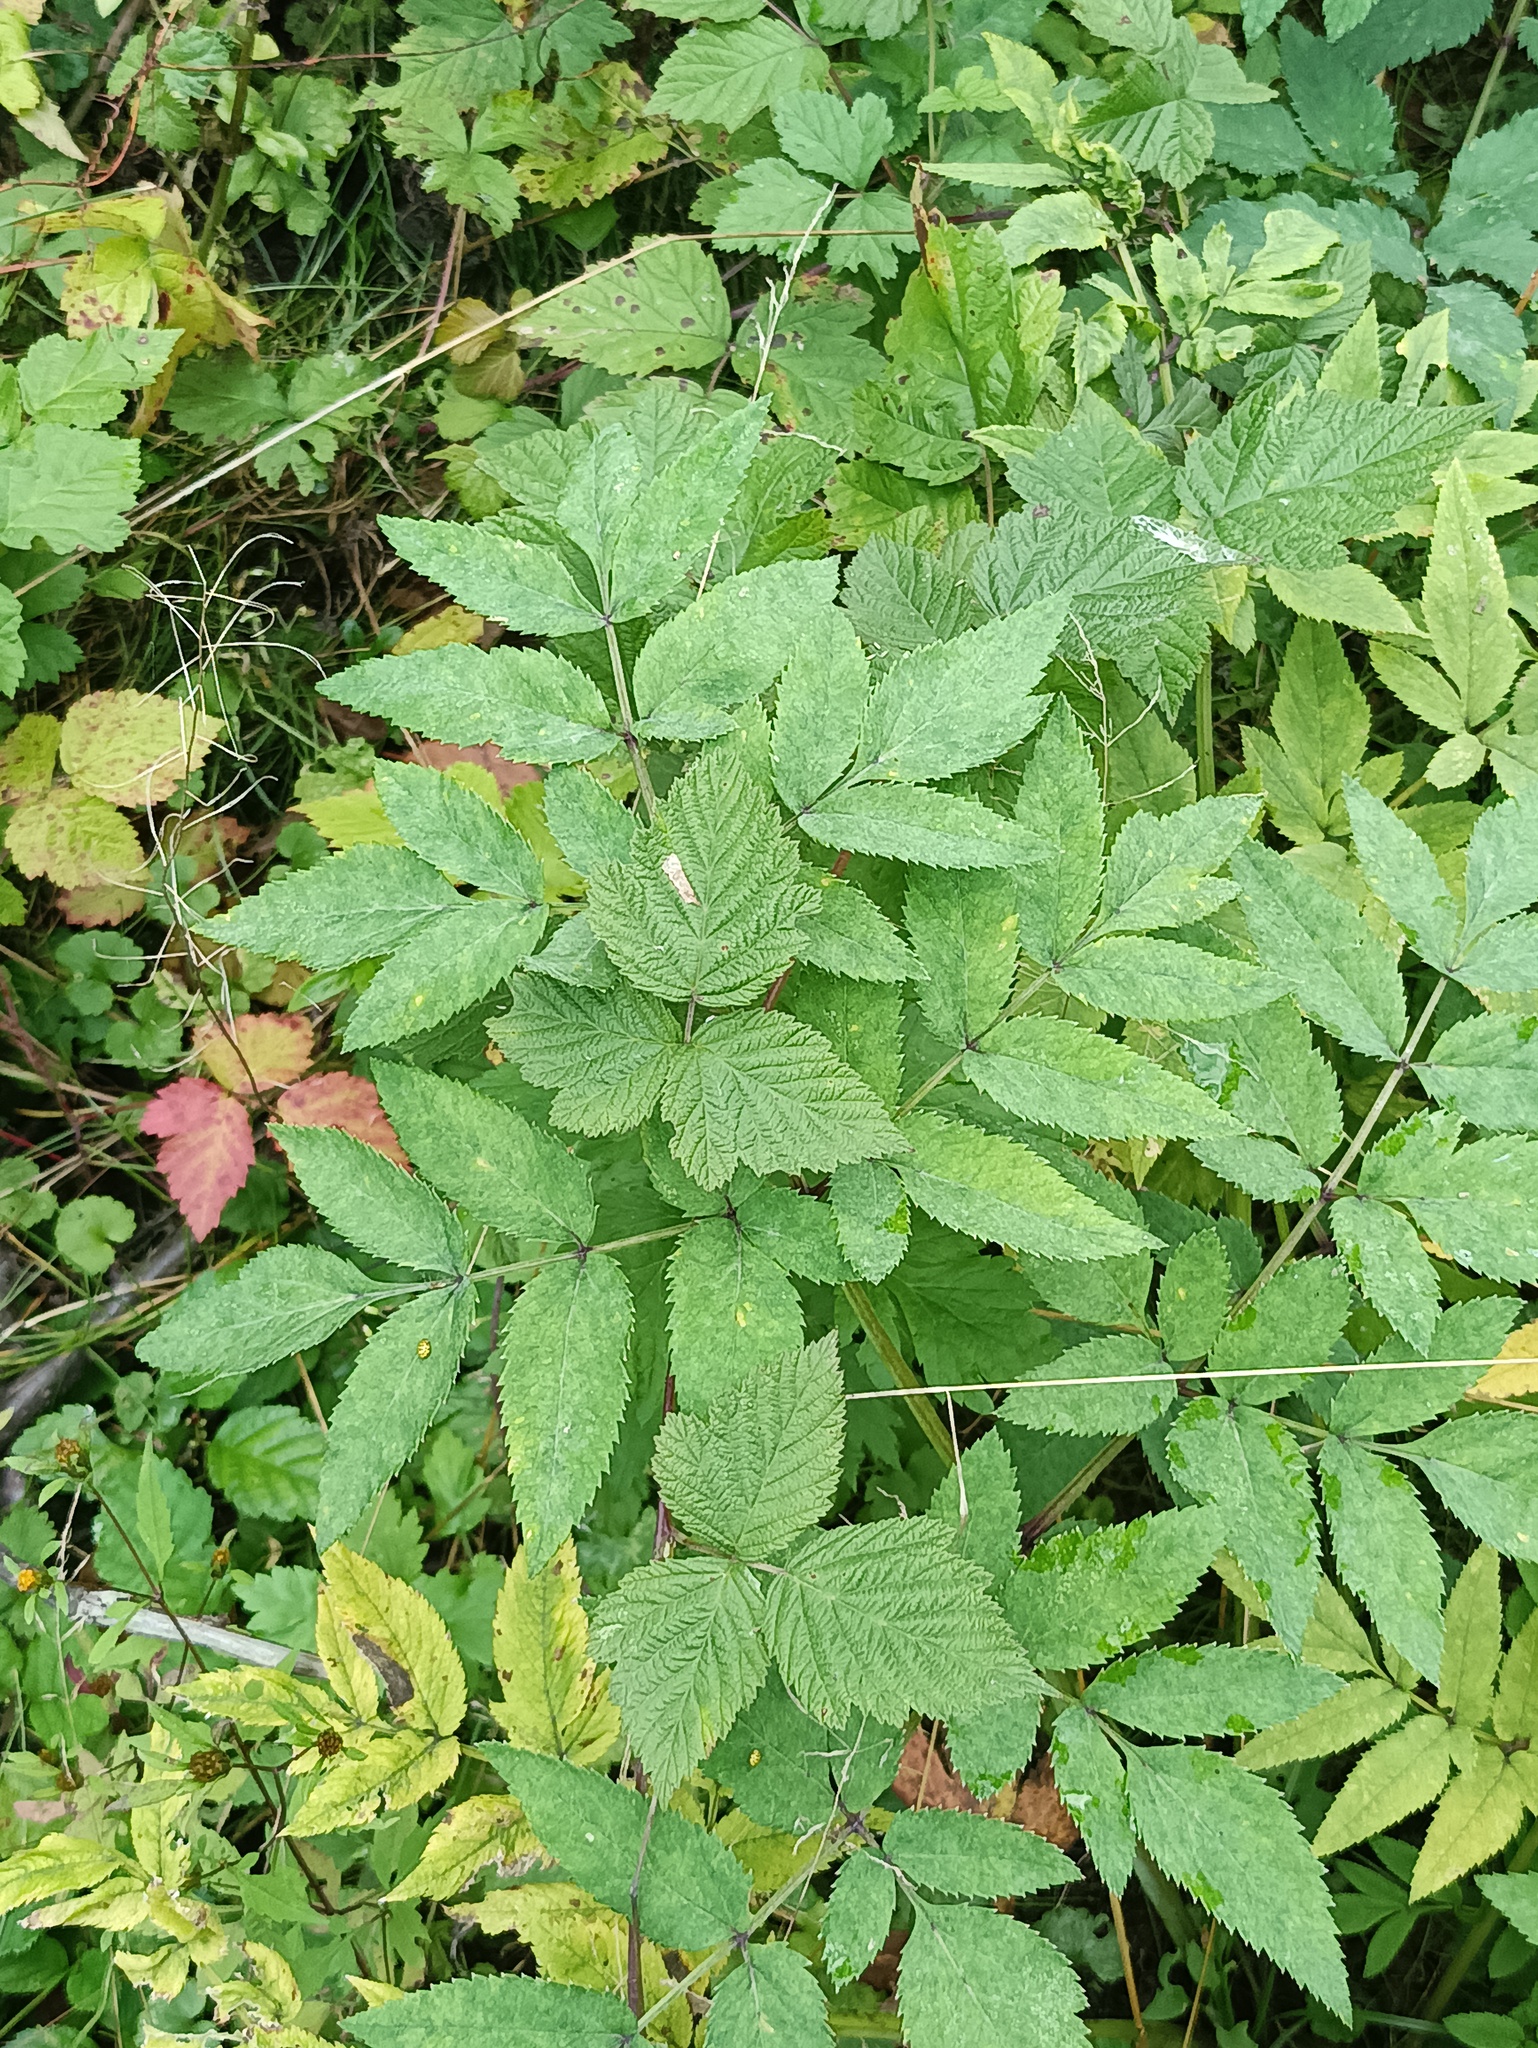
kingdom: Plantae
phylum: Tracheophyta
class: Magnoliopsida
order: Apiales
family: Apiaceae
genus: Angelica
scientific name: Angelica sylvestris
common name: Wild angelica
